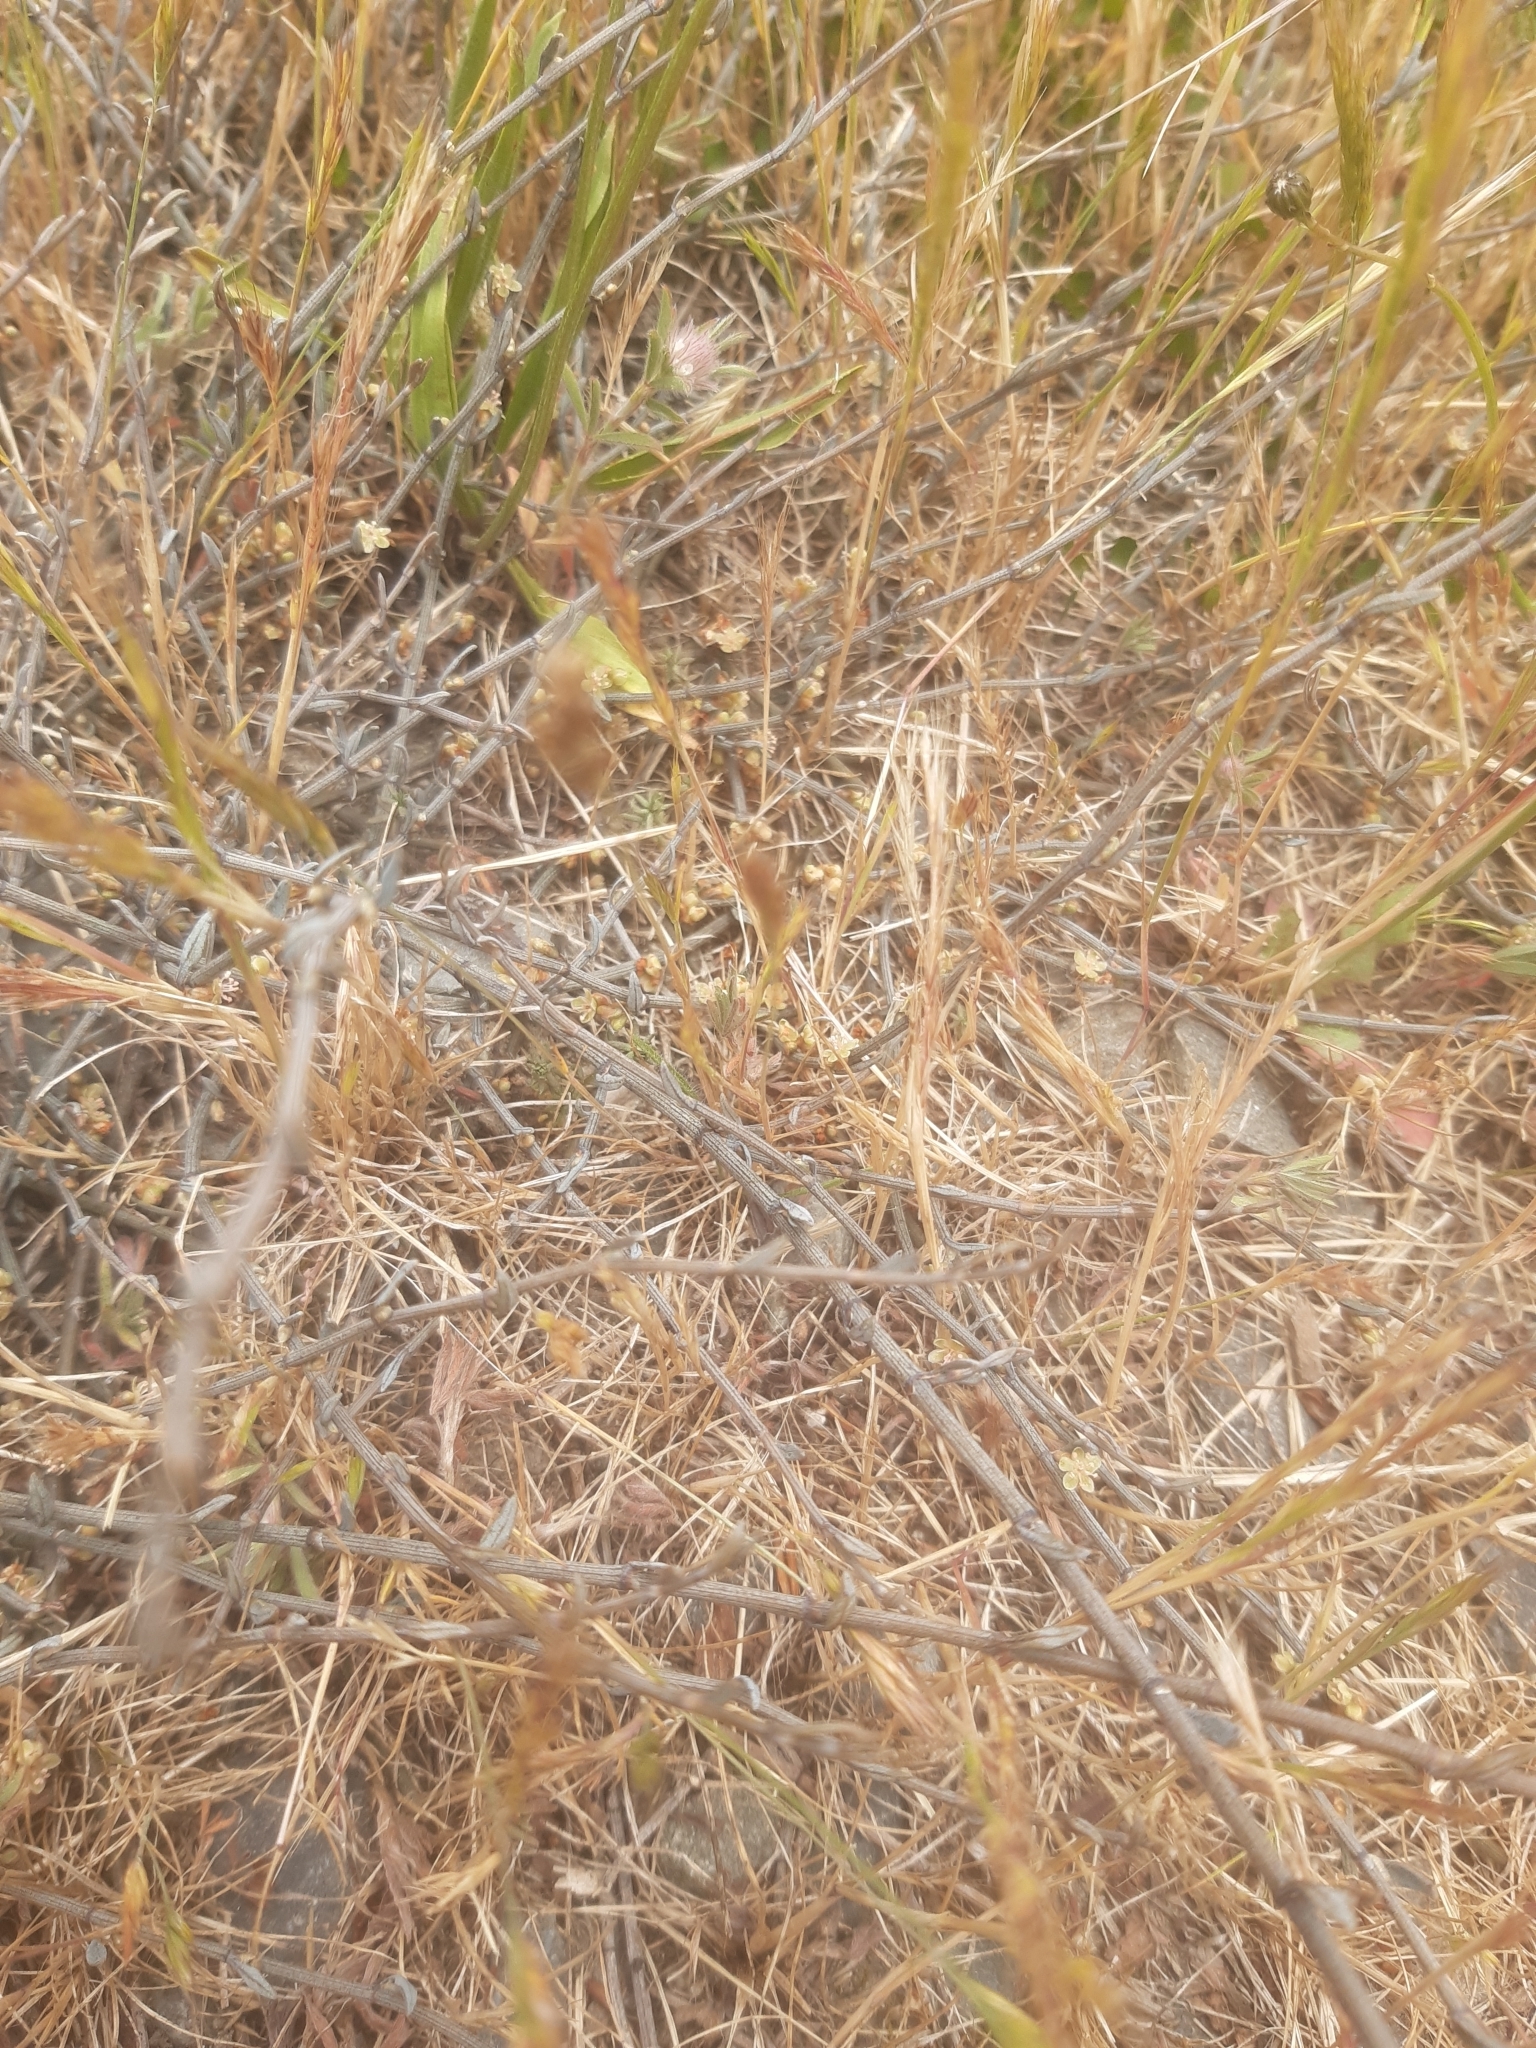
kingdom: Plantae
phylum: Tracheophyta
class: Magnoliopsida
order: Caryophyllales
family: Polygonaceae
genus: Muehlenbeckia
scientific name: Muehlenbeckia ephedroides
